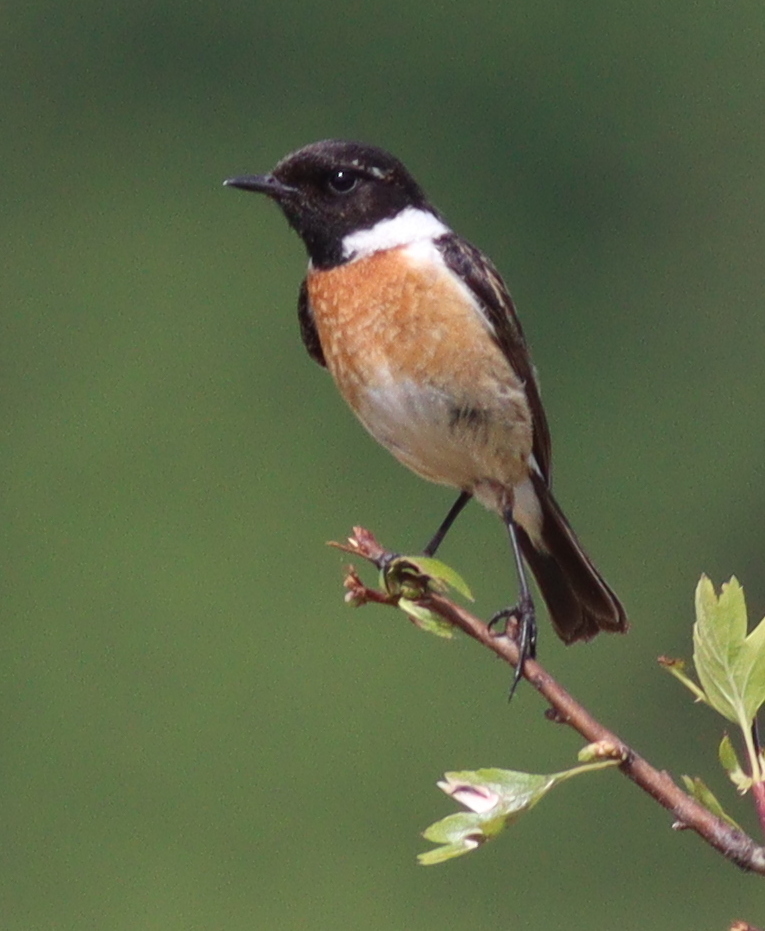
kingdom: Animalia
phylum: Chordata
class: Aves
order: Passeriformes
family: Muscicapidae
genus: Saxicola
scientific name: Saxicola rubicola
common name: European stonechat
